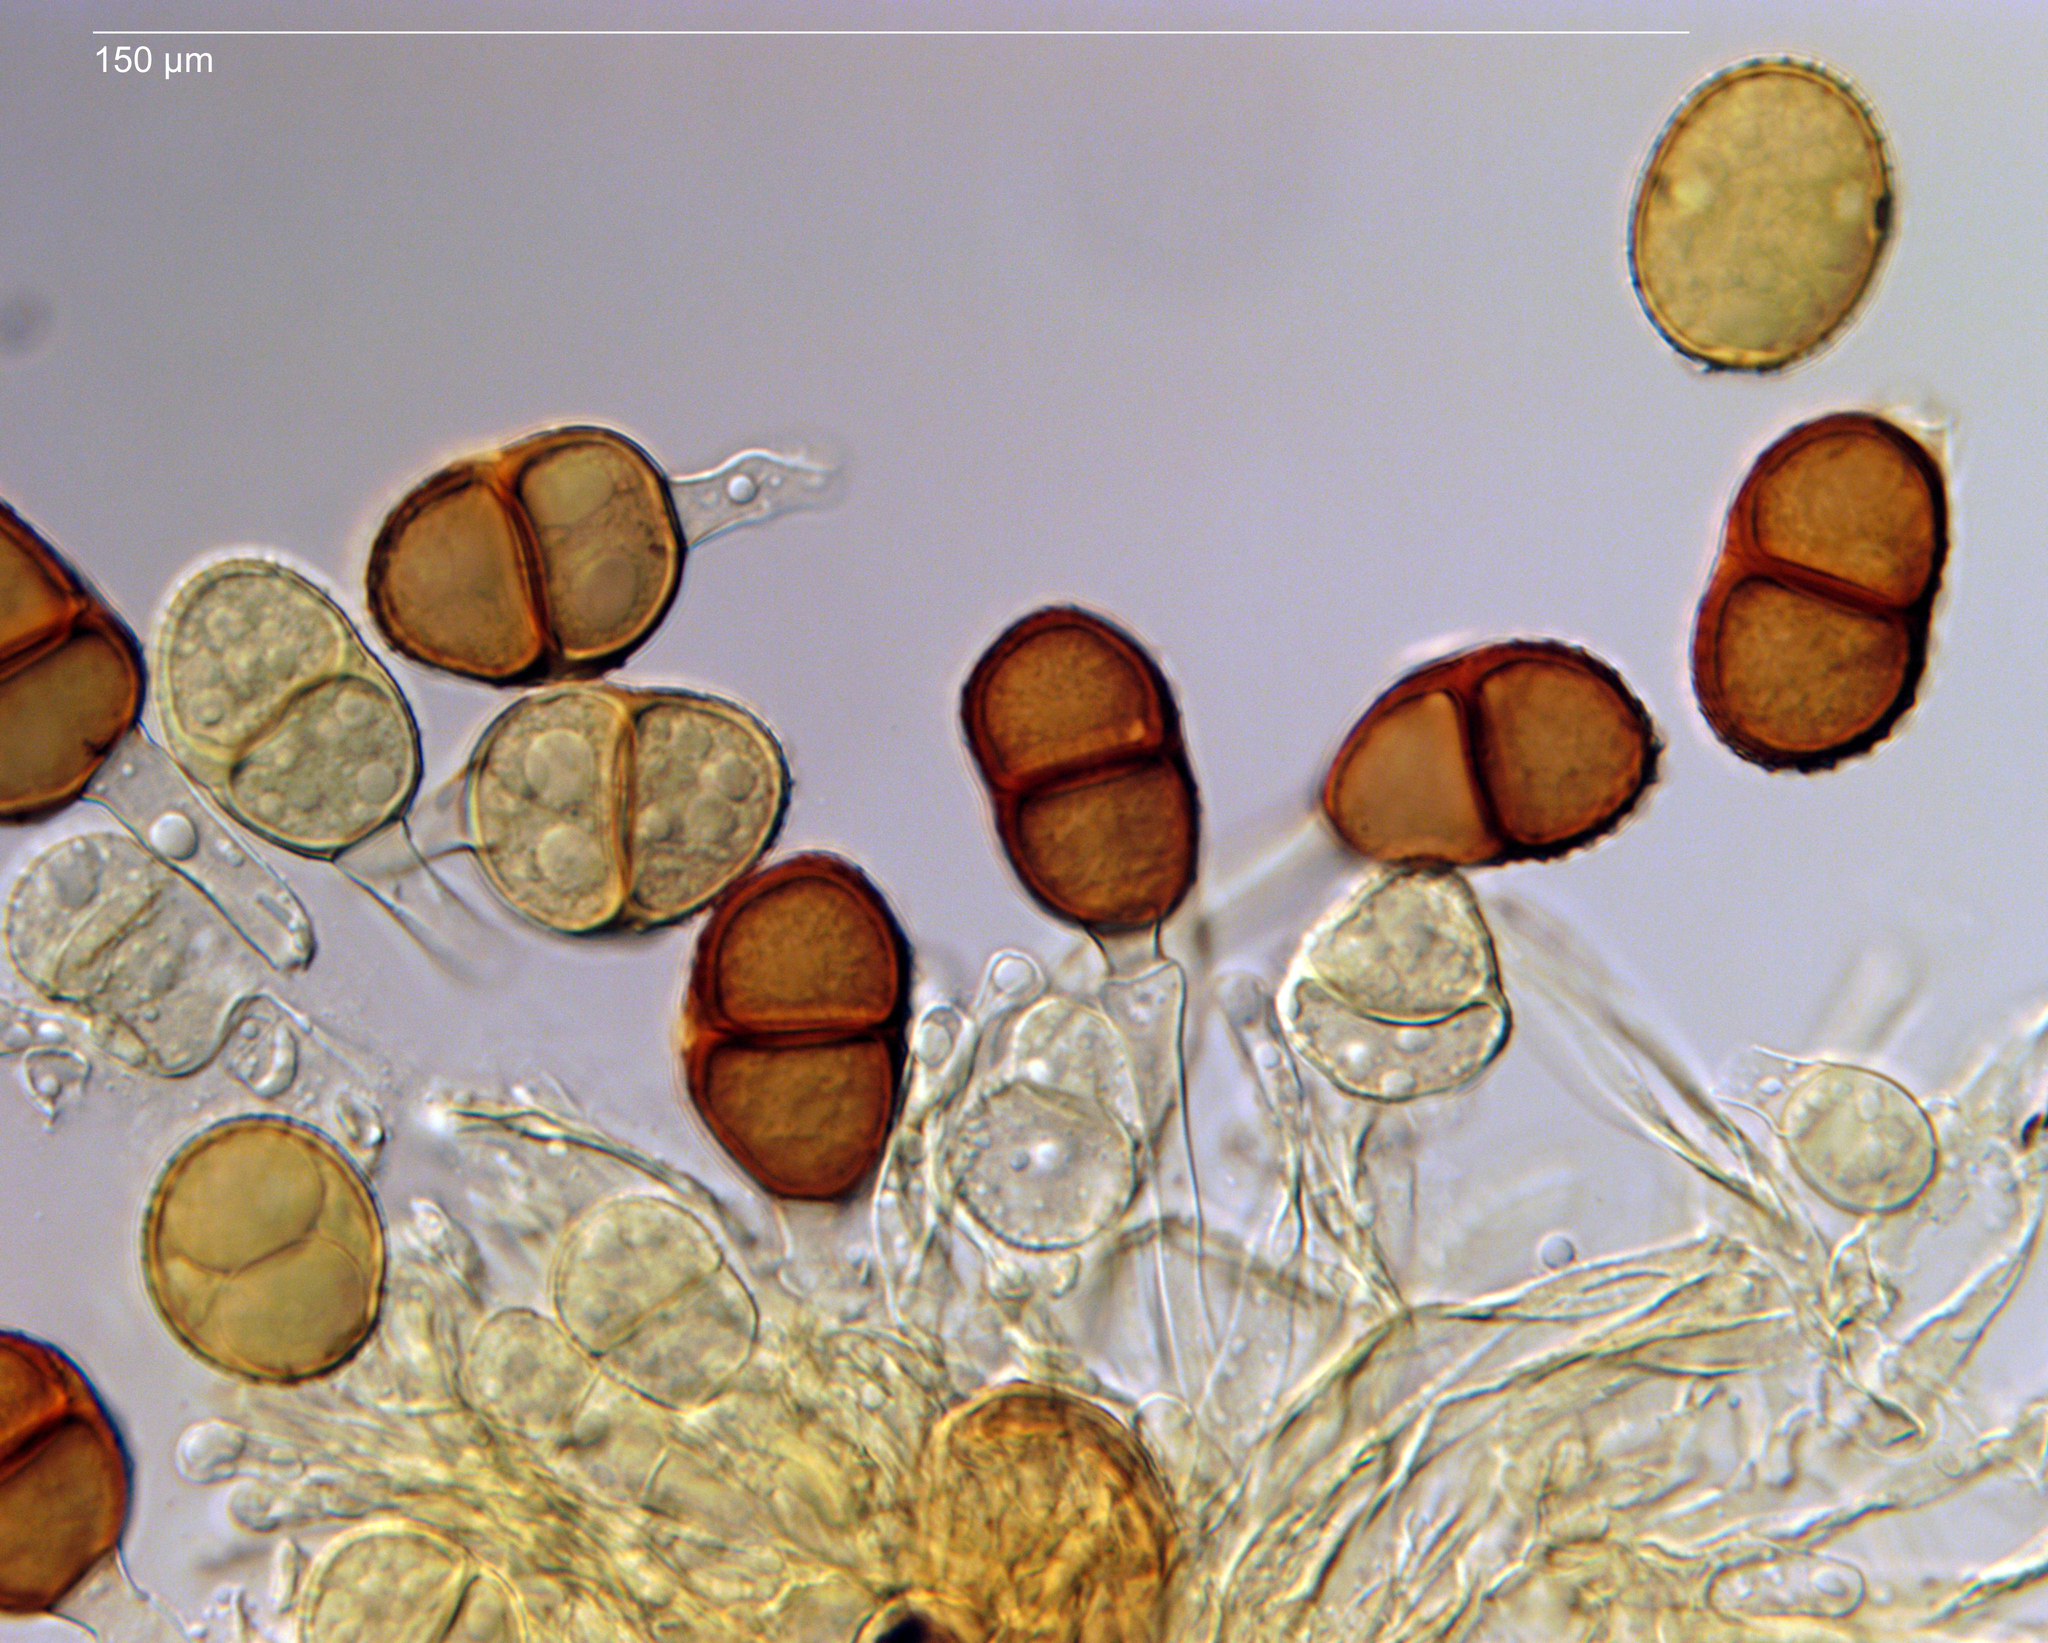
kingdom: Fungi
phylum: Basidiomycota
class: Pucciniomycetes
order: Pucciniales
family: Pucciniaceae
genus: Puccinia
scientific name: Puccinia otagensis
